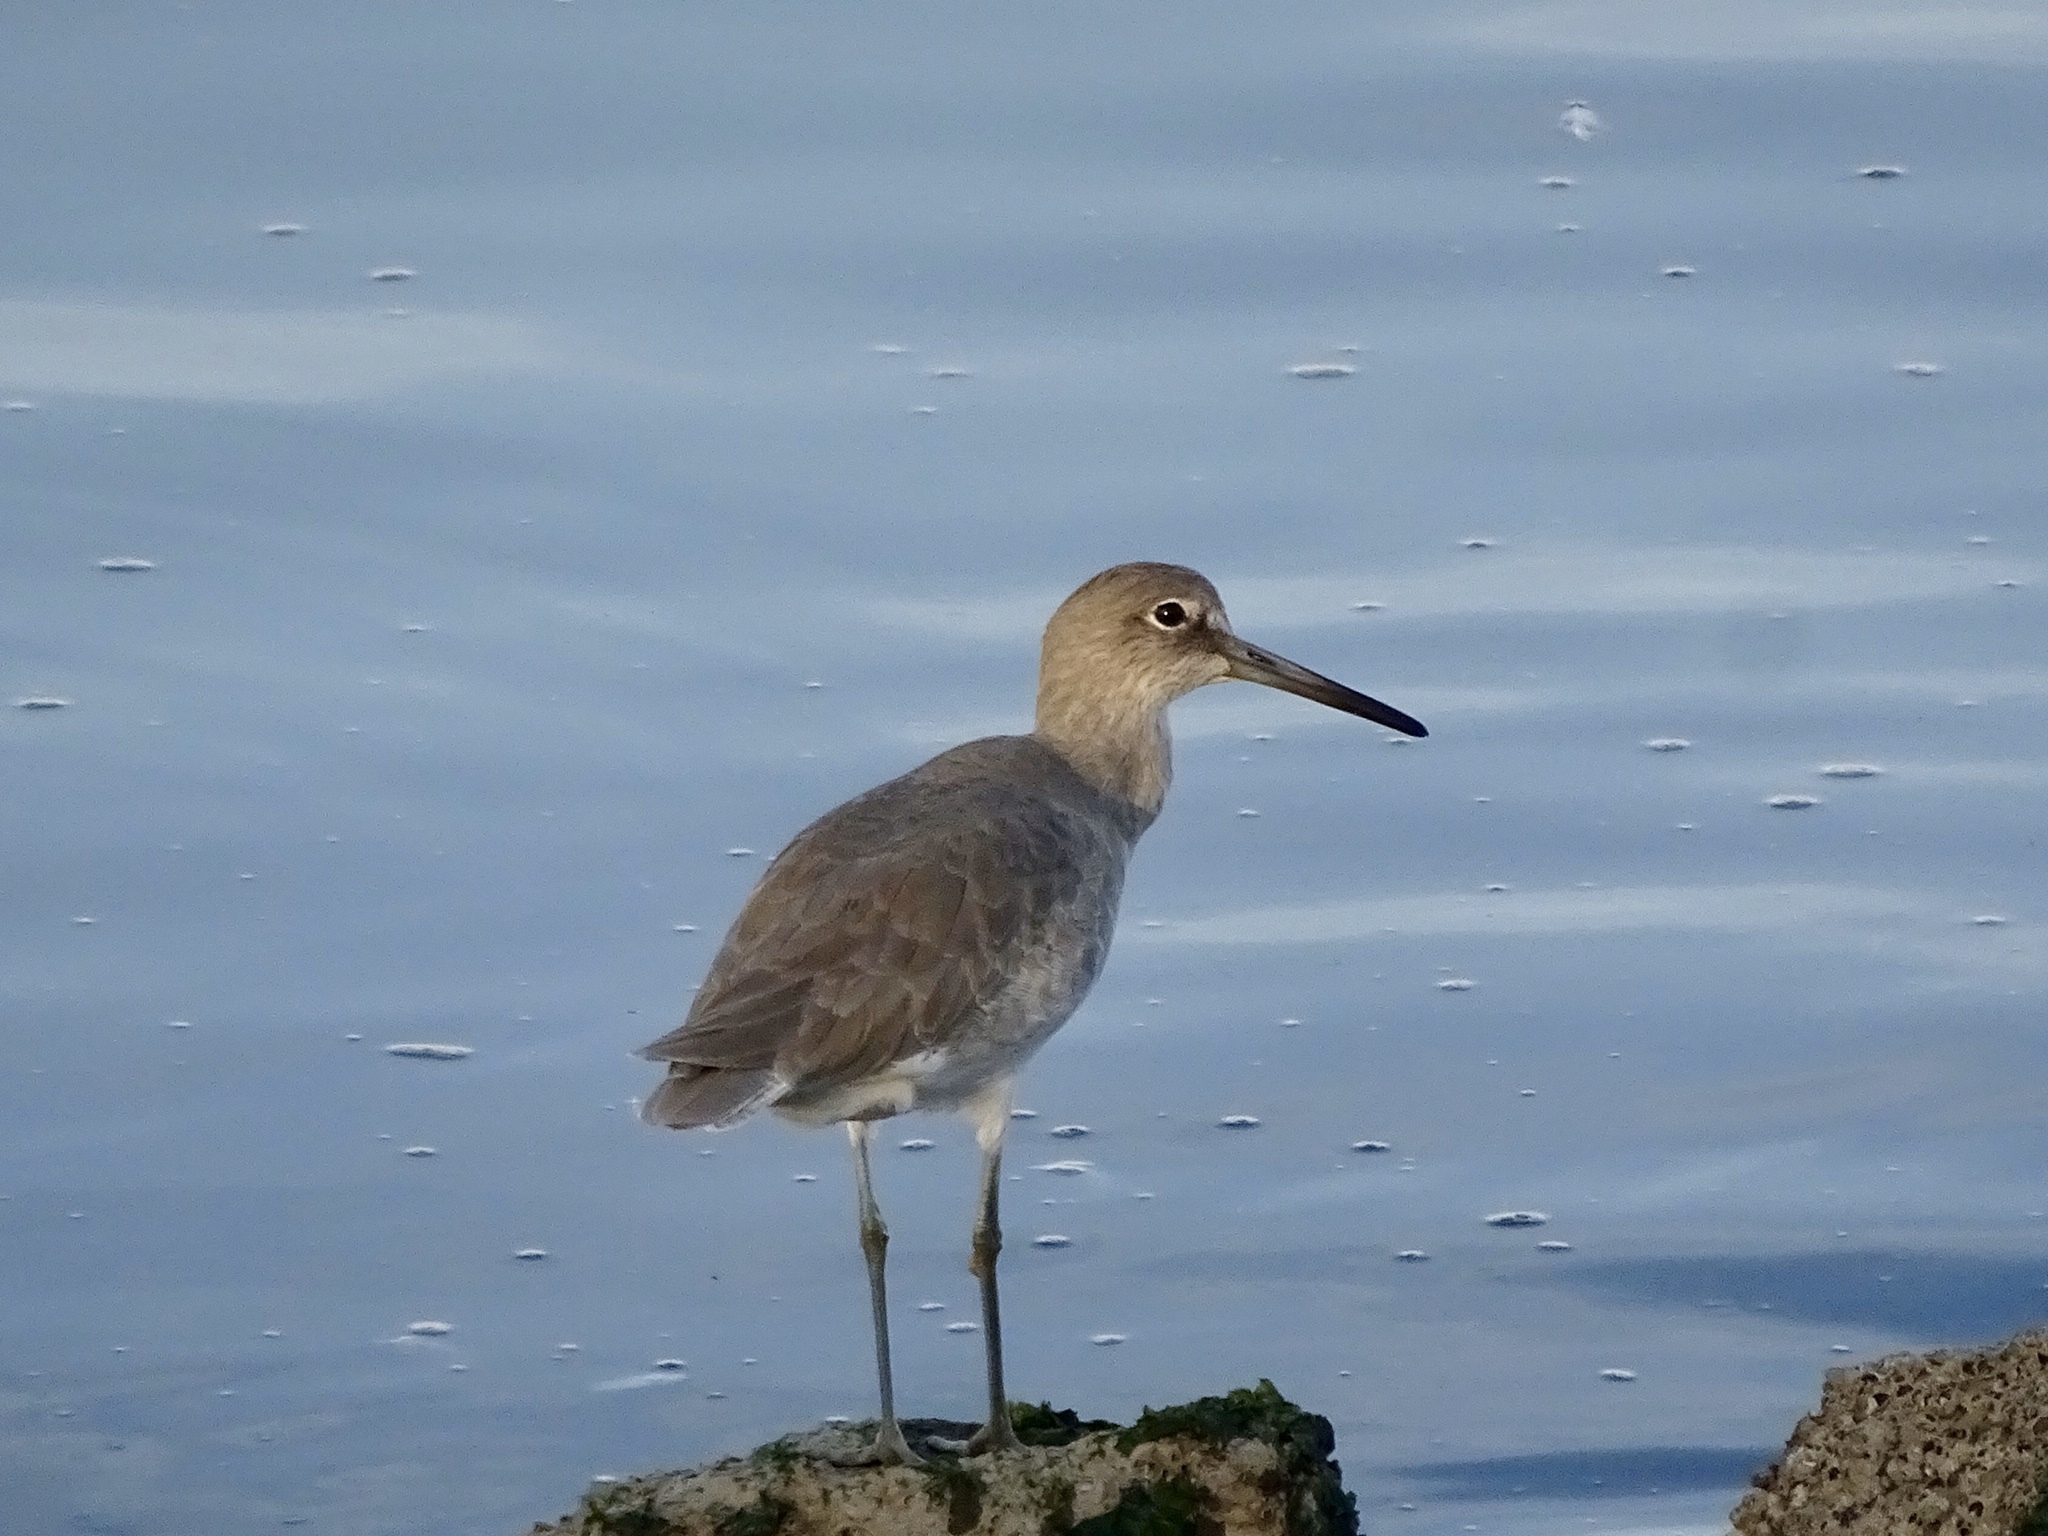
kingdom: Animalia
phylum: Chordata
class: Aves
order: Charadriiformes
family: Scolopacidae
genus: Tringa
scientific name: Tringa semipalmata
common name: Willet
